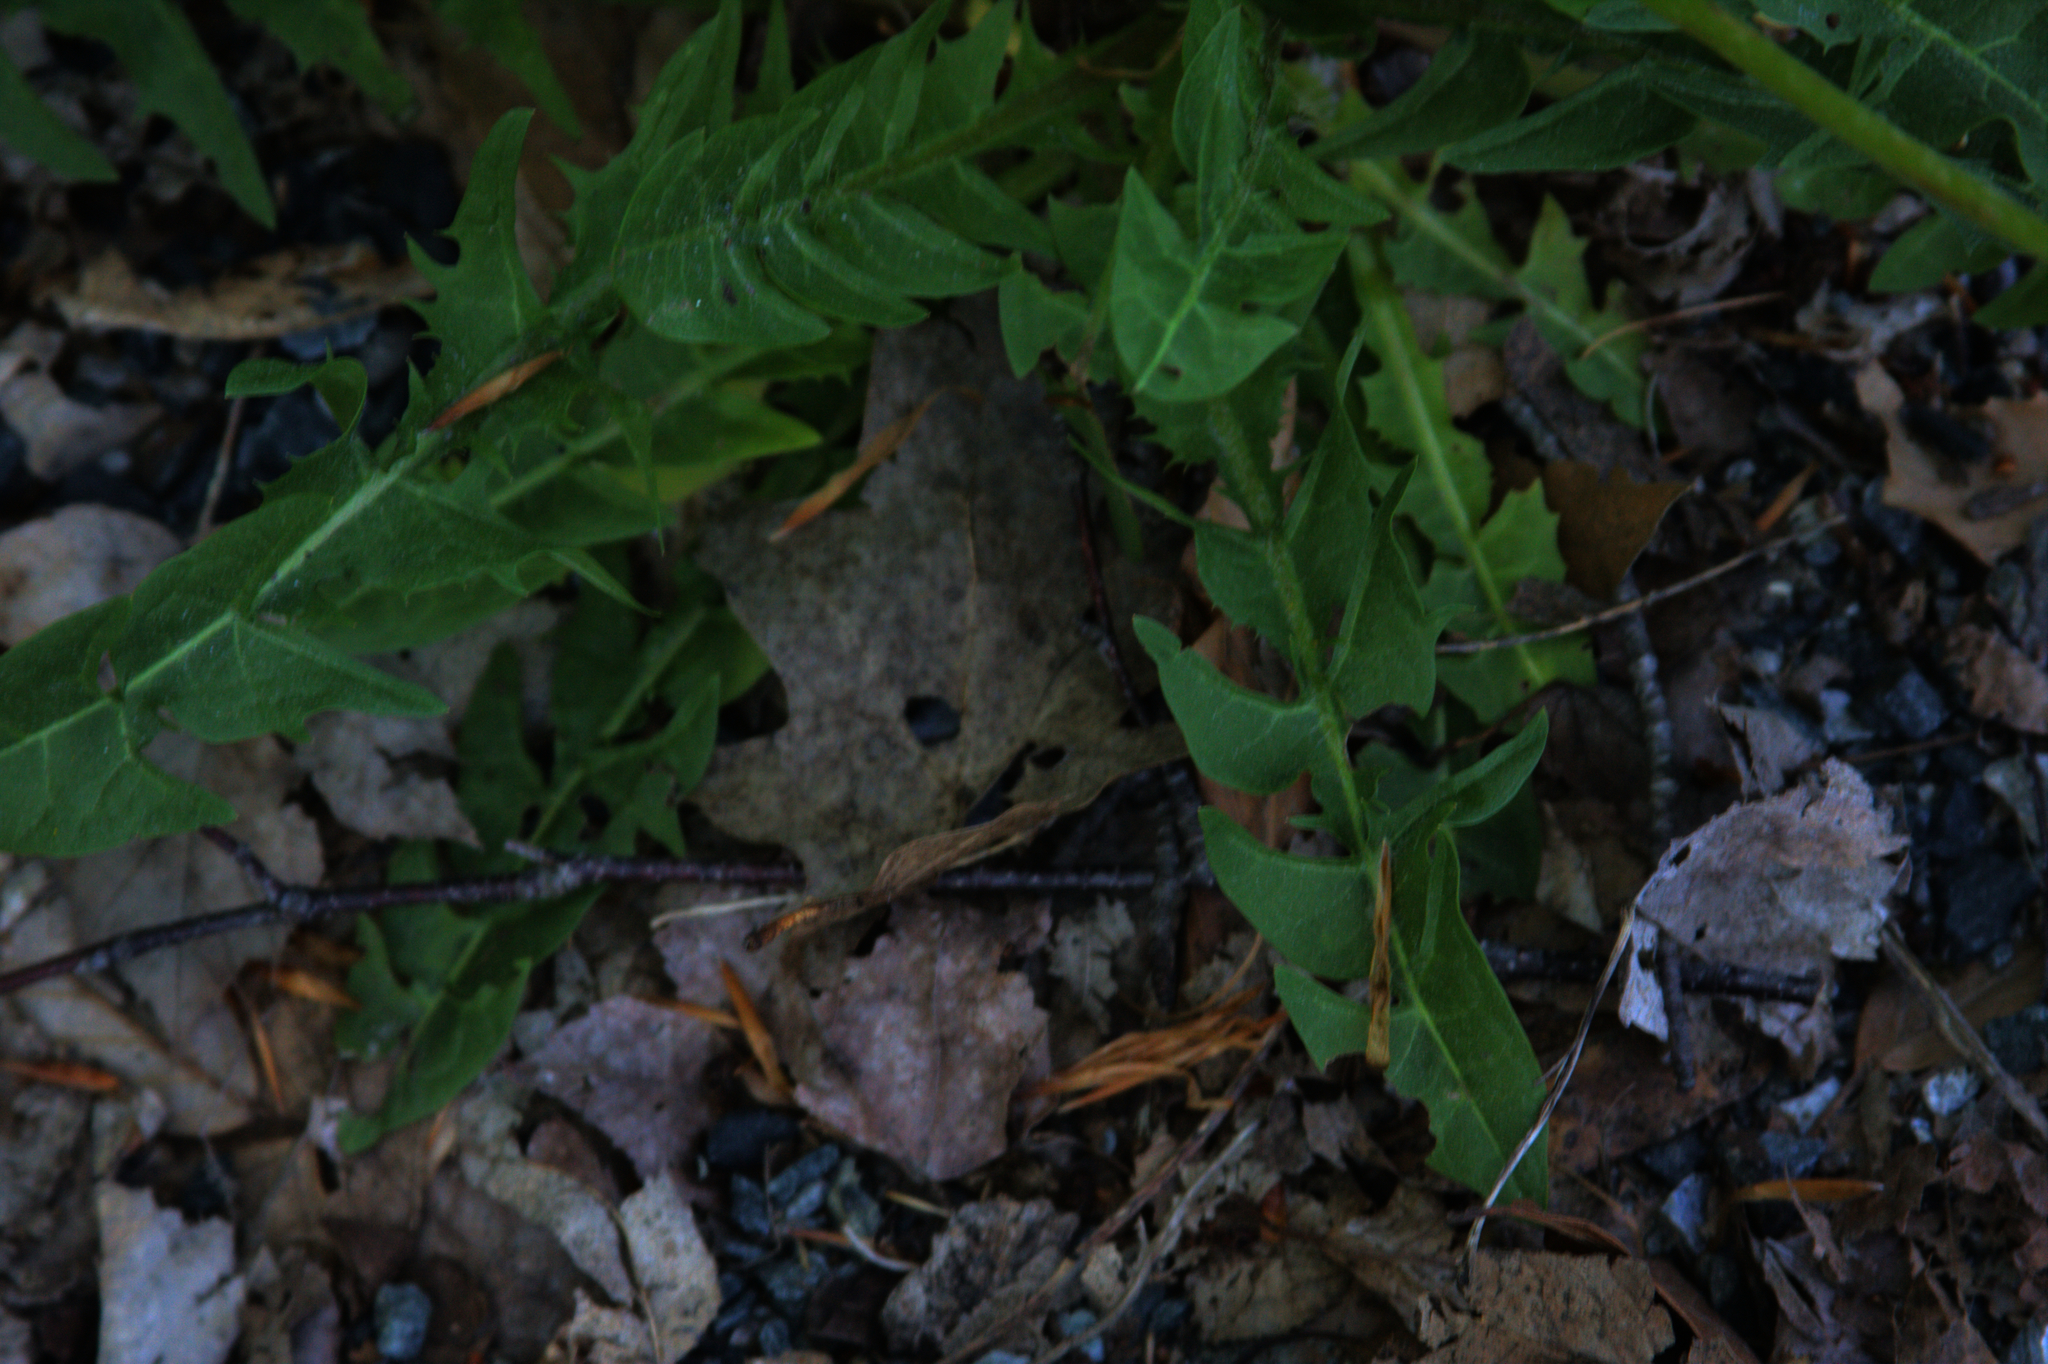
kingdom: Plantae
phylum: Tracheophyta
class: Magnoliopsida
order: Asterales
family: Asteraceae
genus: Taraxacum
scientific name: Taraxacum officinale
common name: Common dandelion
